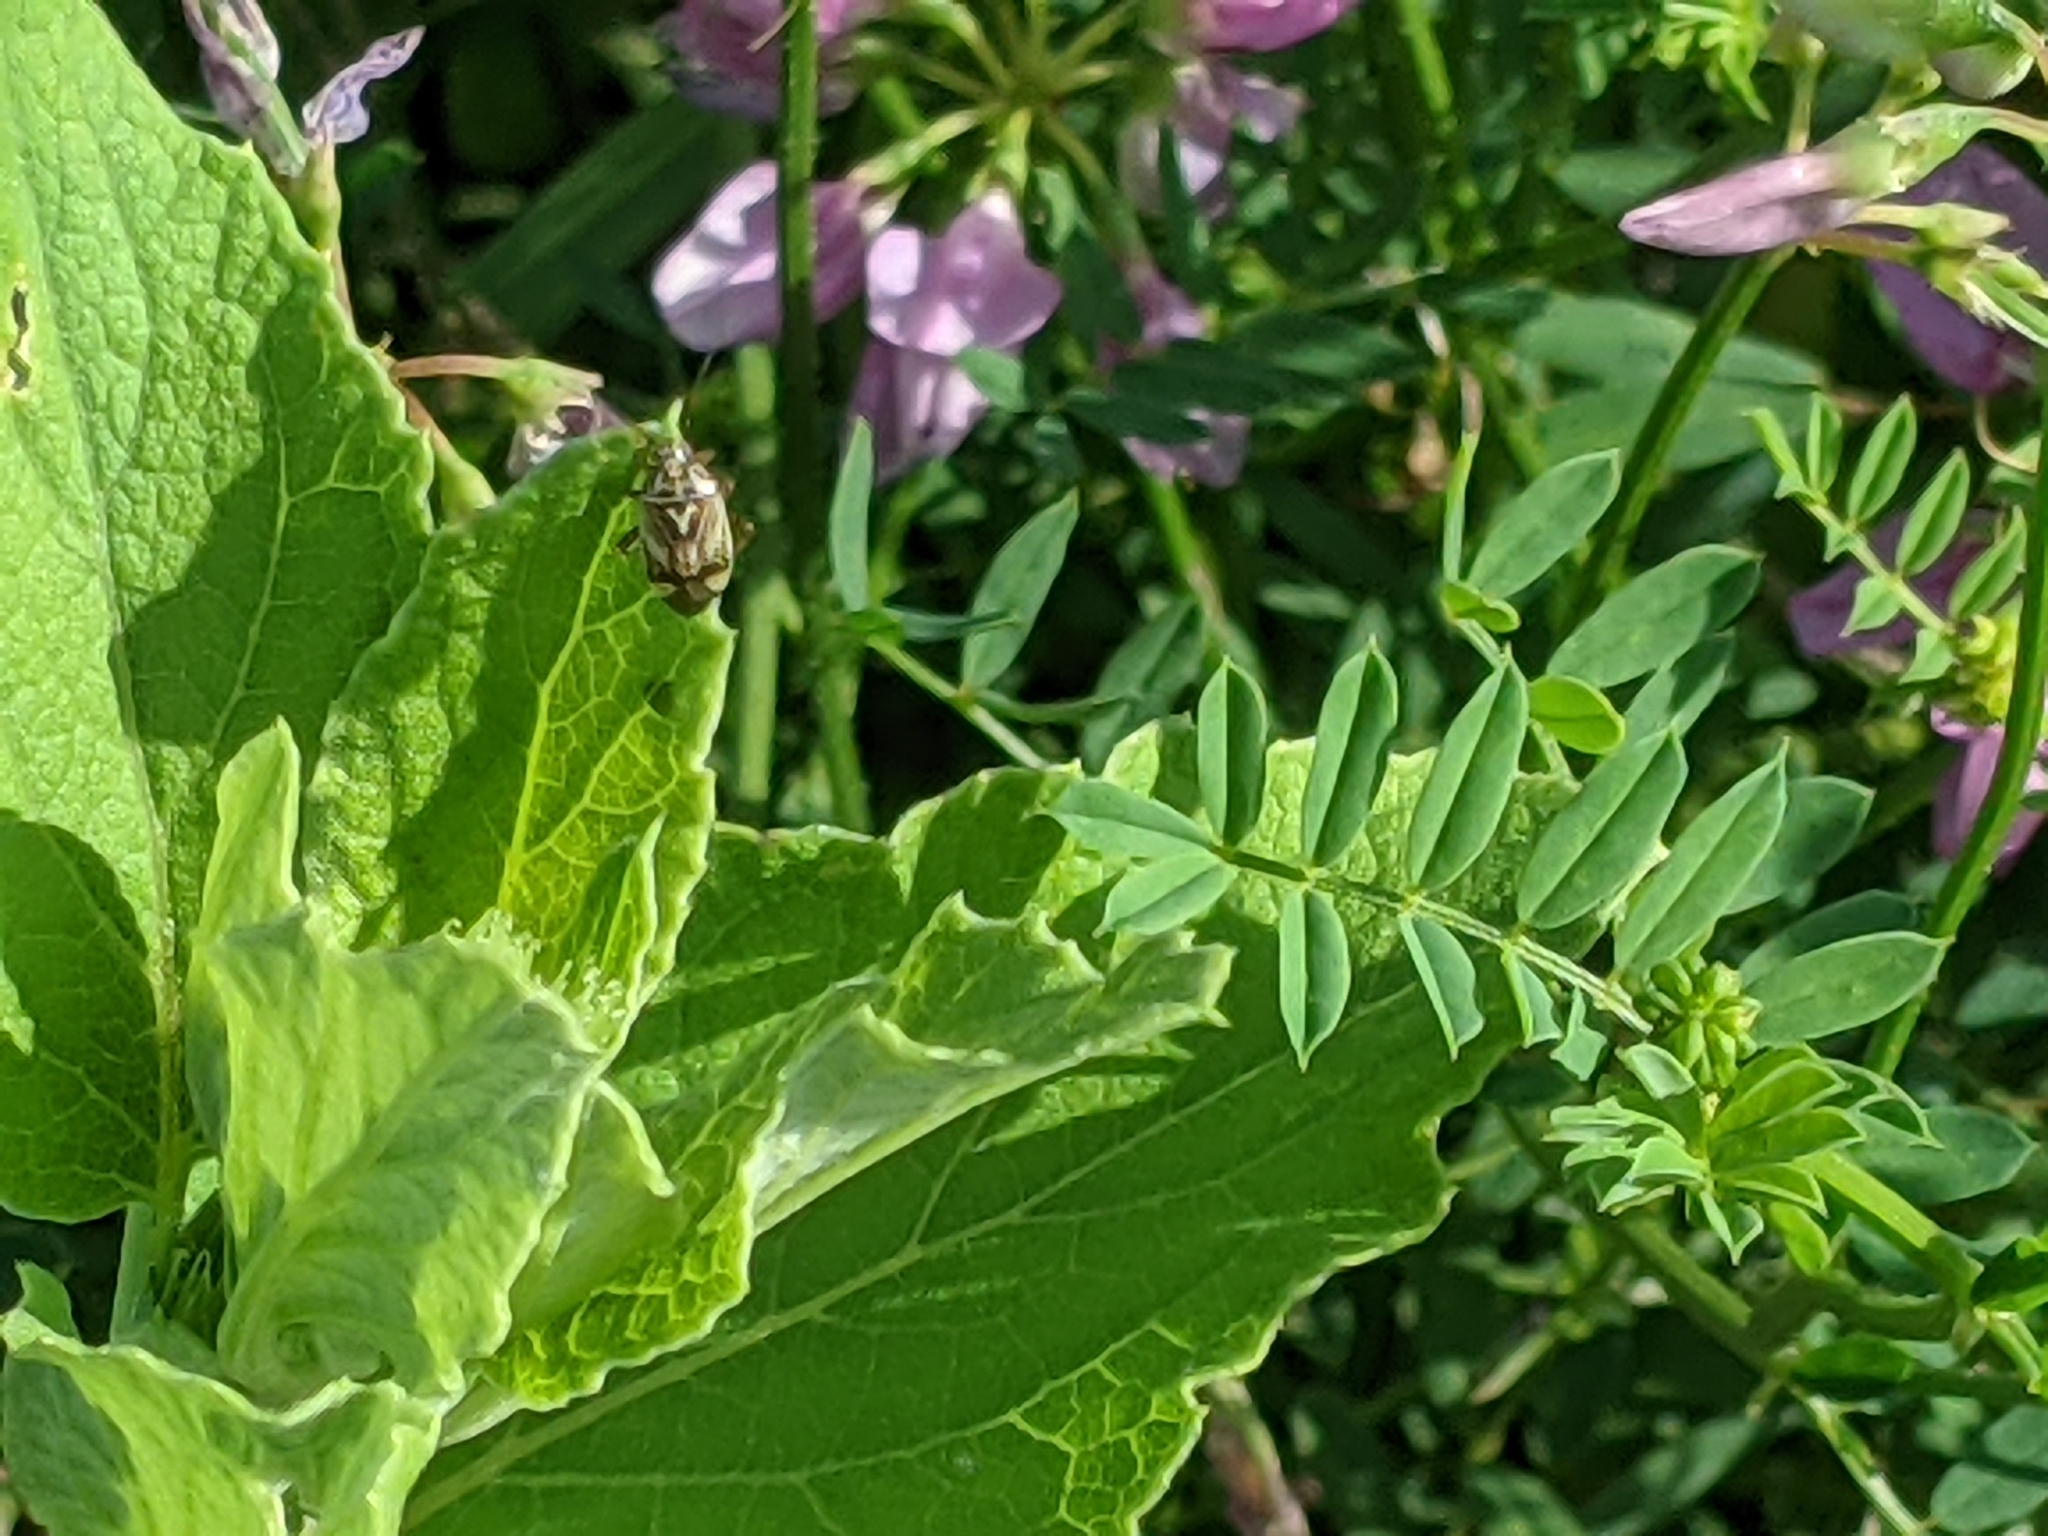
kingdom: Animalia
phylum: Arthropoda
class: Insecta
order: Hemiptera
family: Miridae
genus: Lygus
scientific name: Lygus lineolaris
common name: North american tarnished plant bug
